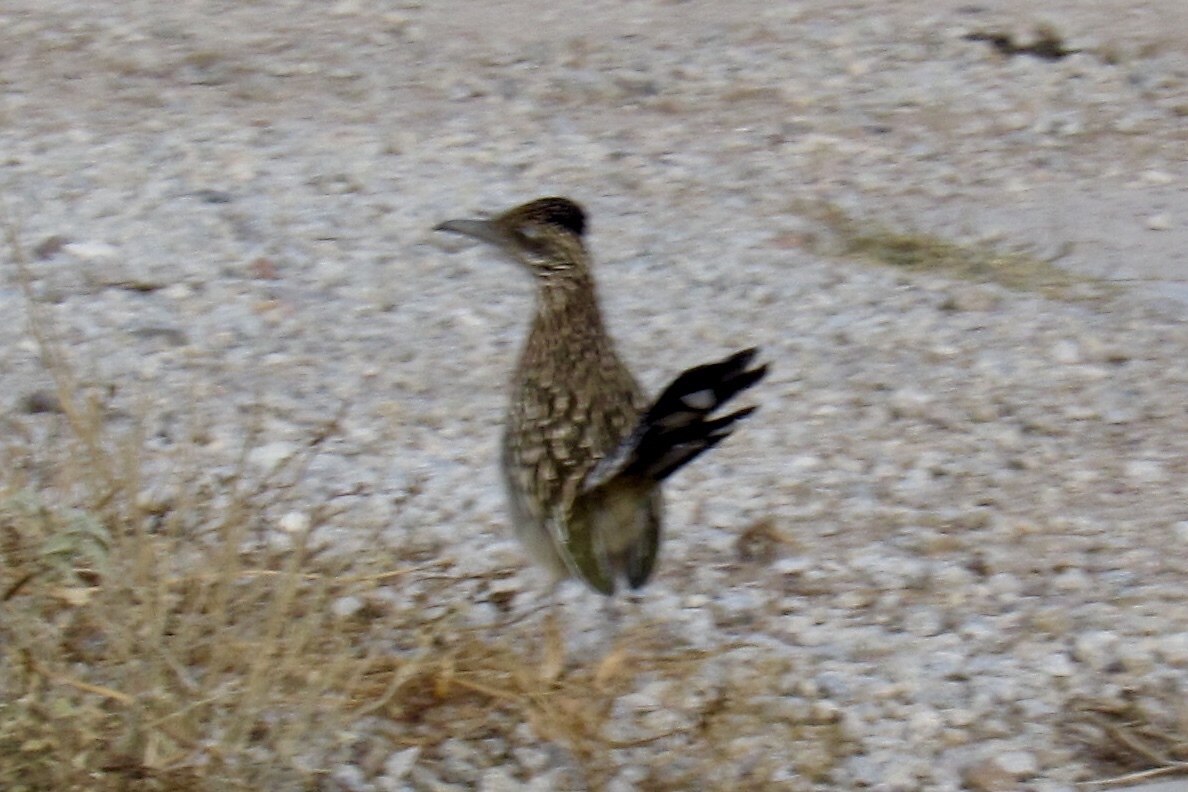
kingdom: Animalia
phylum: Chordata
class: Aves
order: Cuculiformes
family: Cuculidae
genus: Geococcyx
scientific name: Geococcyx californianus
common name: Greater roadrunner
